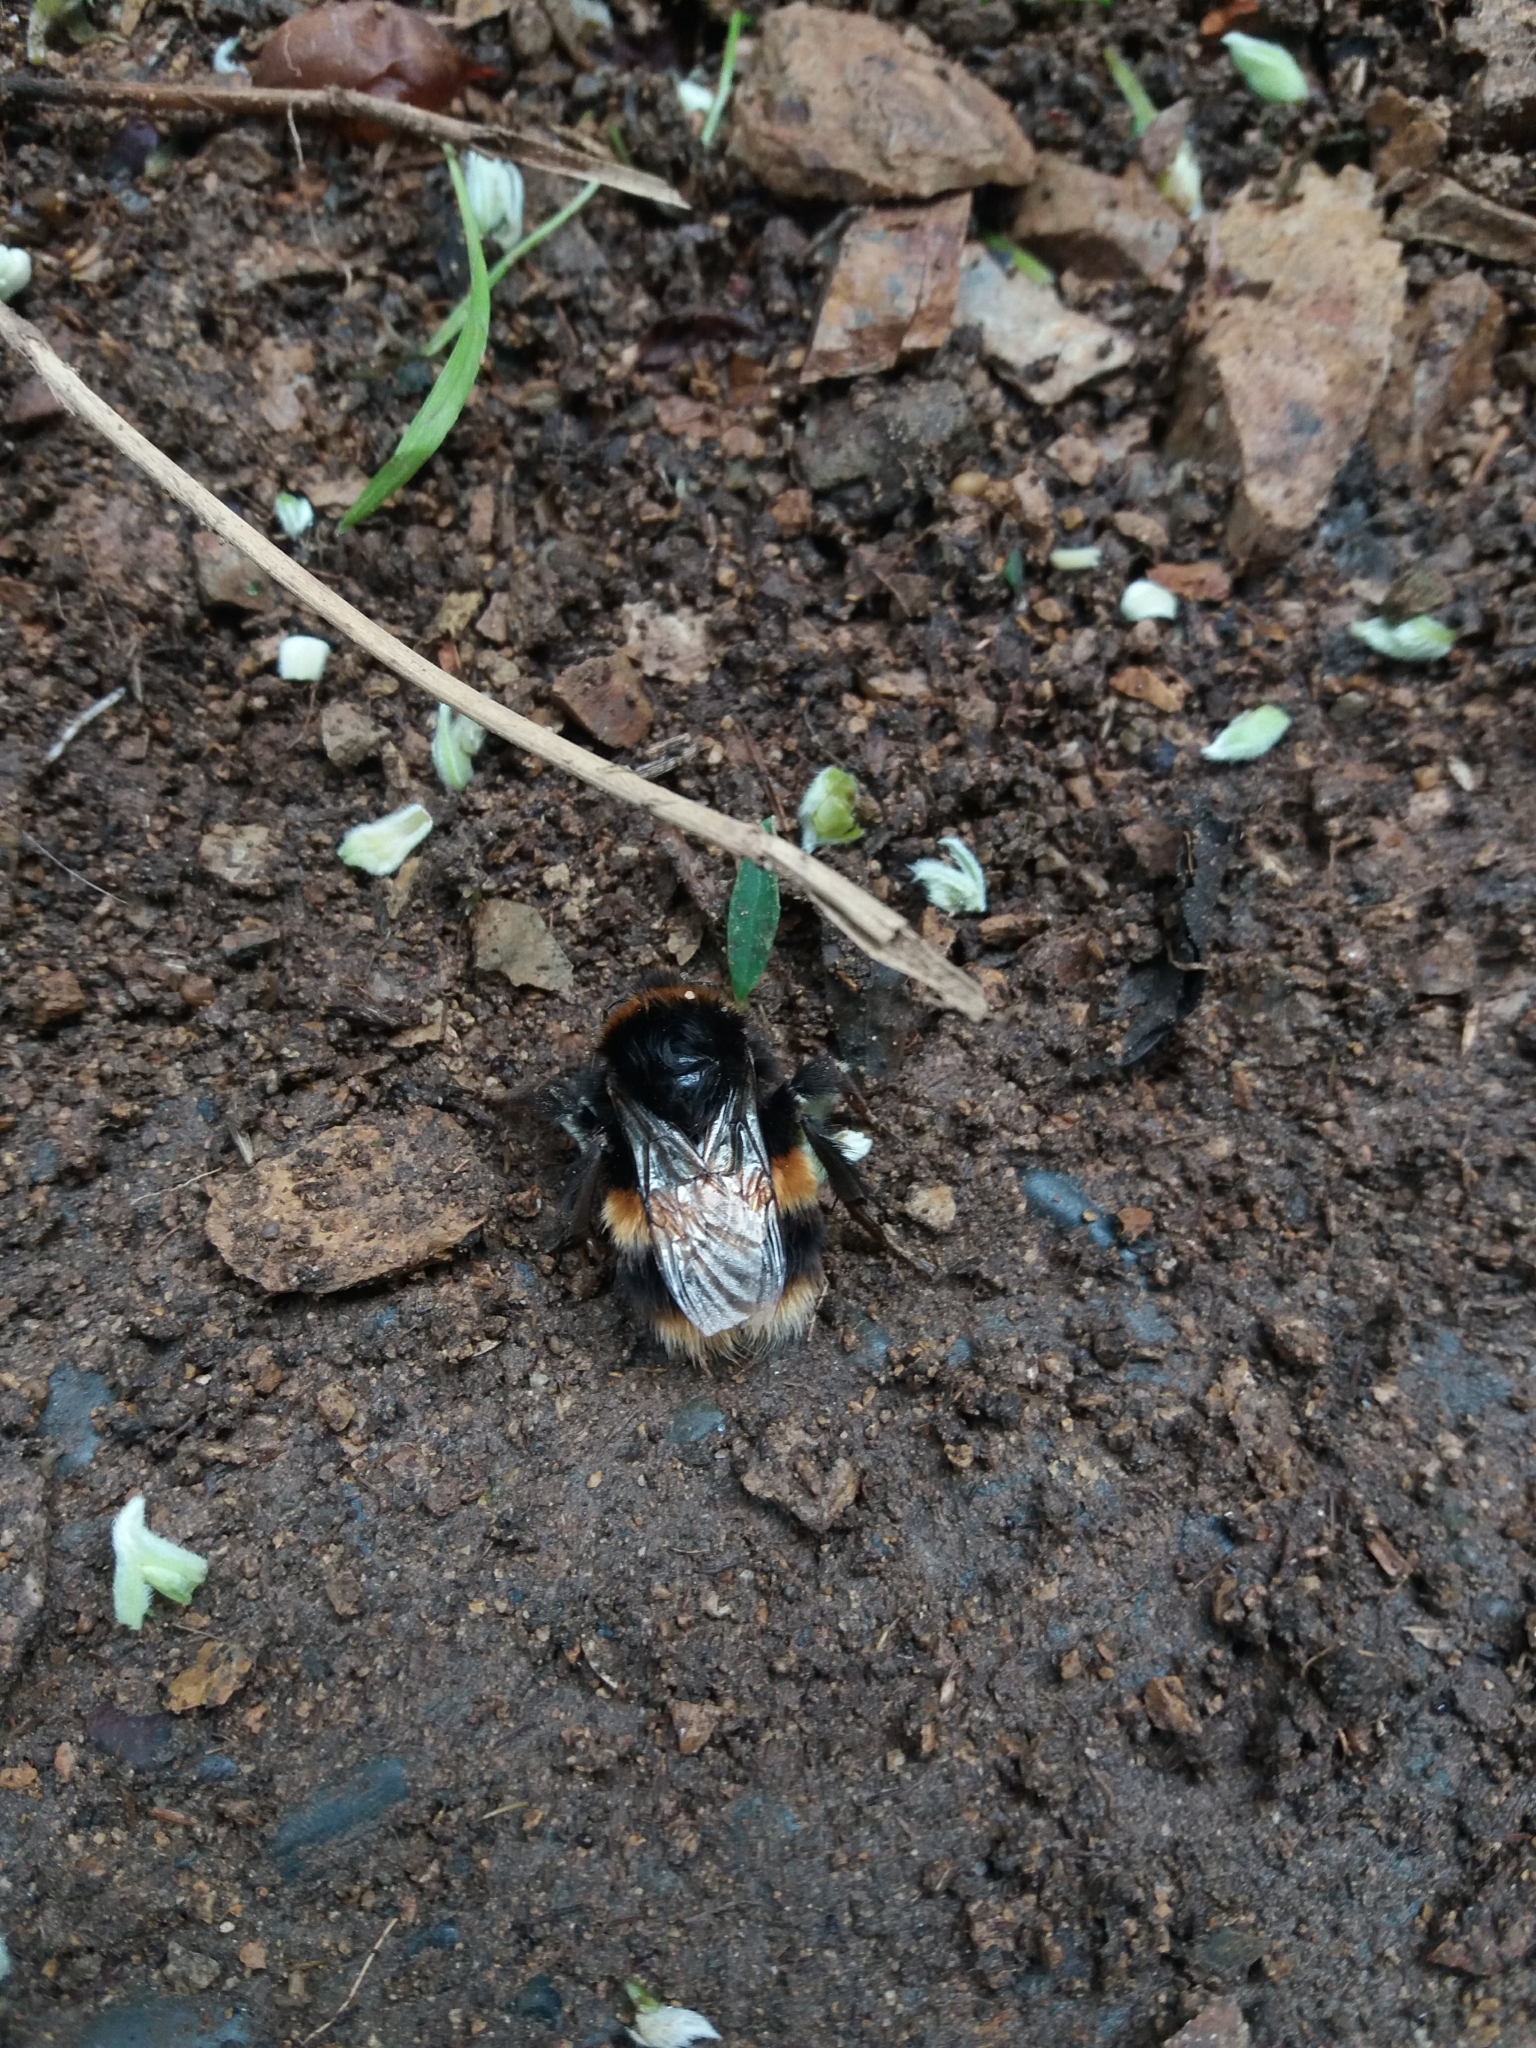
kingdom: Animalia
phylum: Arthropoda
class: Insecta
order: Hymenoptera
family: Apidae
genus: Bombus
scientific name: Bombus terrestris
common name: Buff-tailed bumblebee
